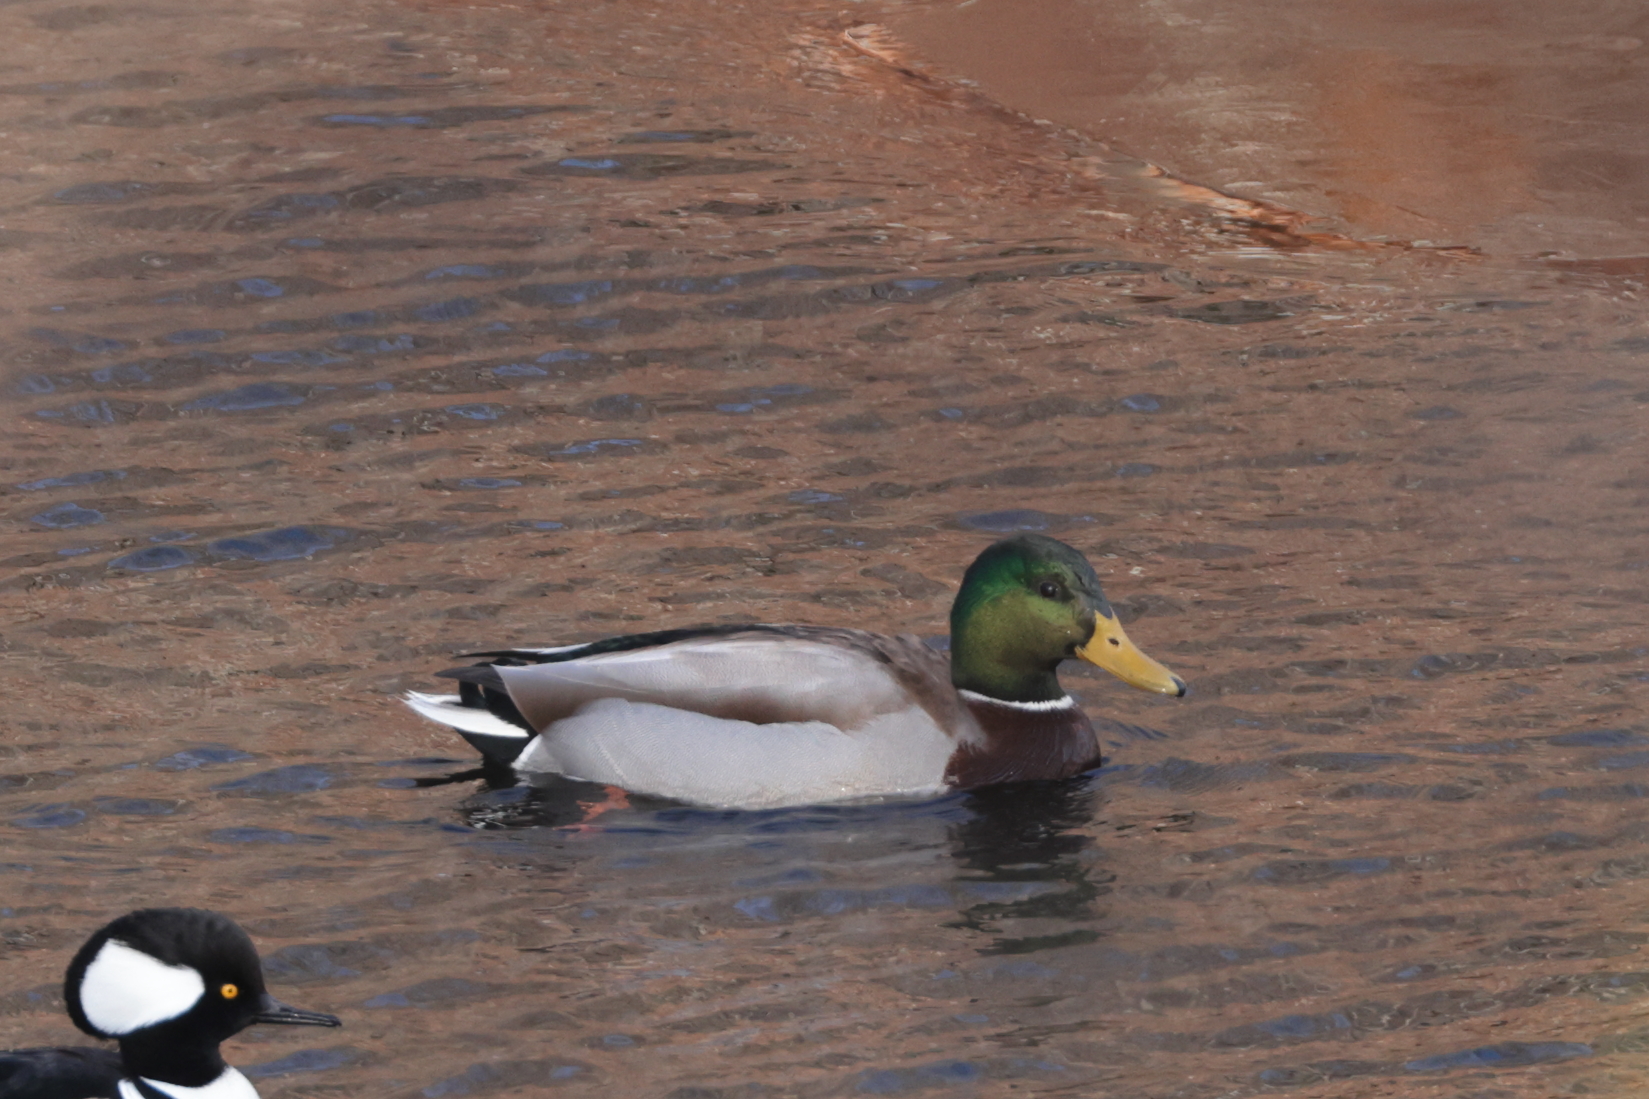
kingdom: Animalia
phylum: Chordata
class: Aves
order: Anseriformes
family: Anatidae
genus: Anas
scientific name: Anas platyrhynchos
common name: Mallard
